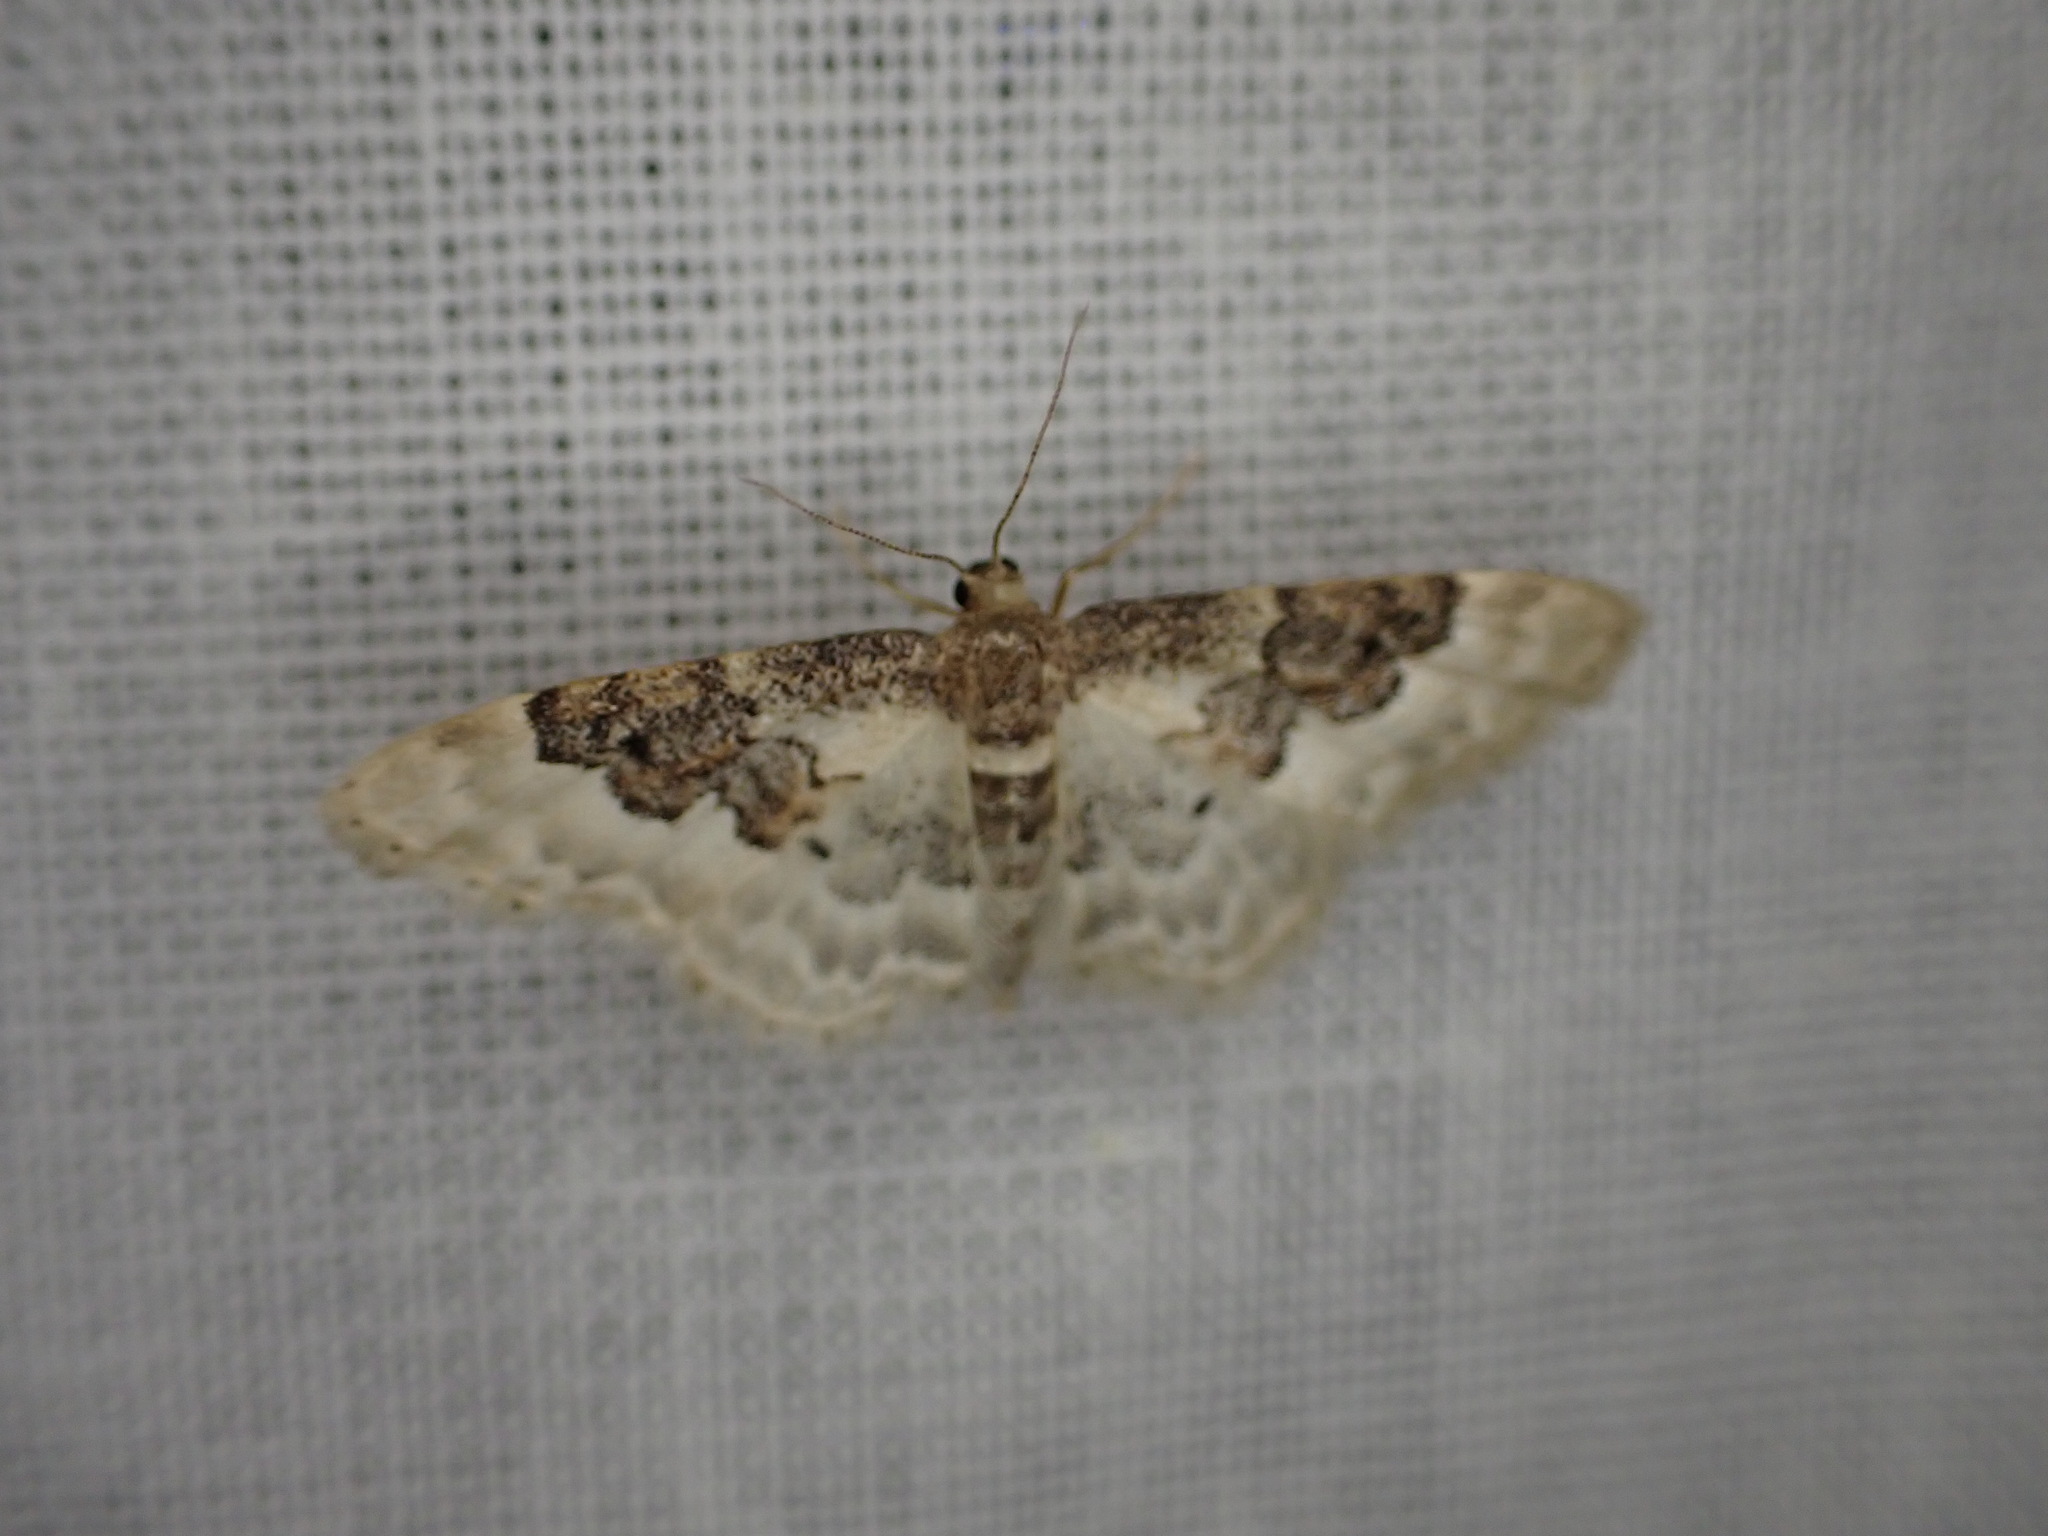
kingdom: Animalia
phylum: Arthropoda
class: Insecta
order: Lepidoptera
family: Geometridae
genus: Idaea
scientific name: Idaea rusticata
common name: Least carpet
